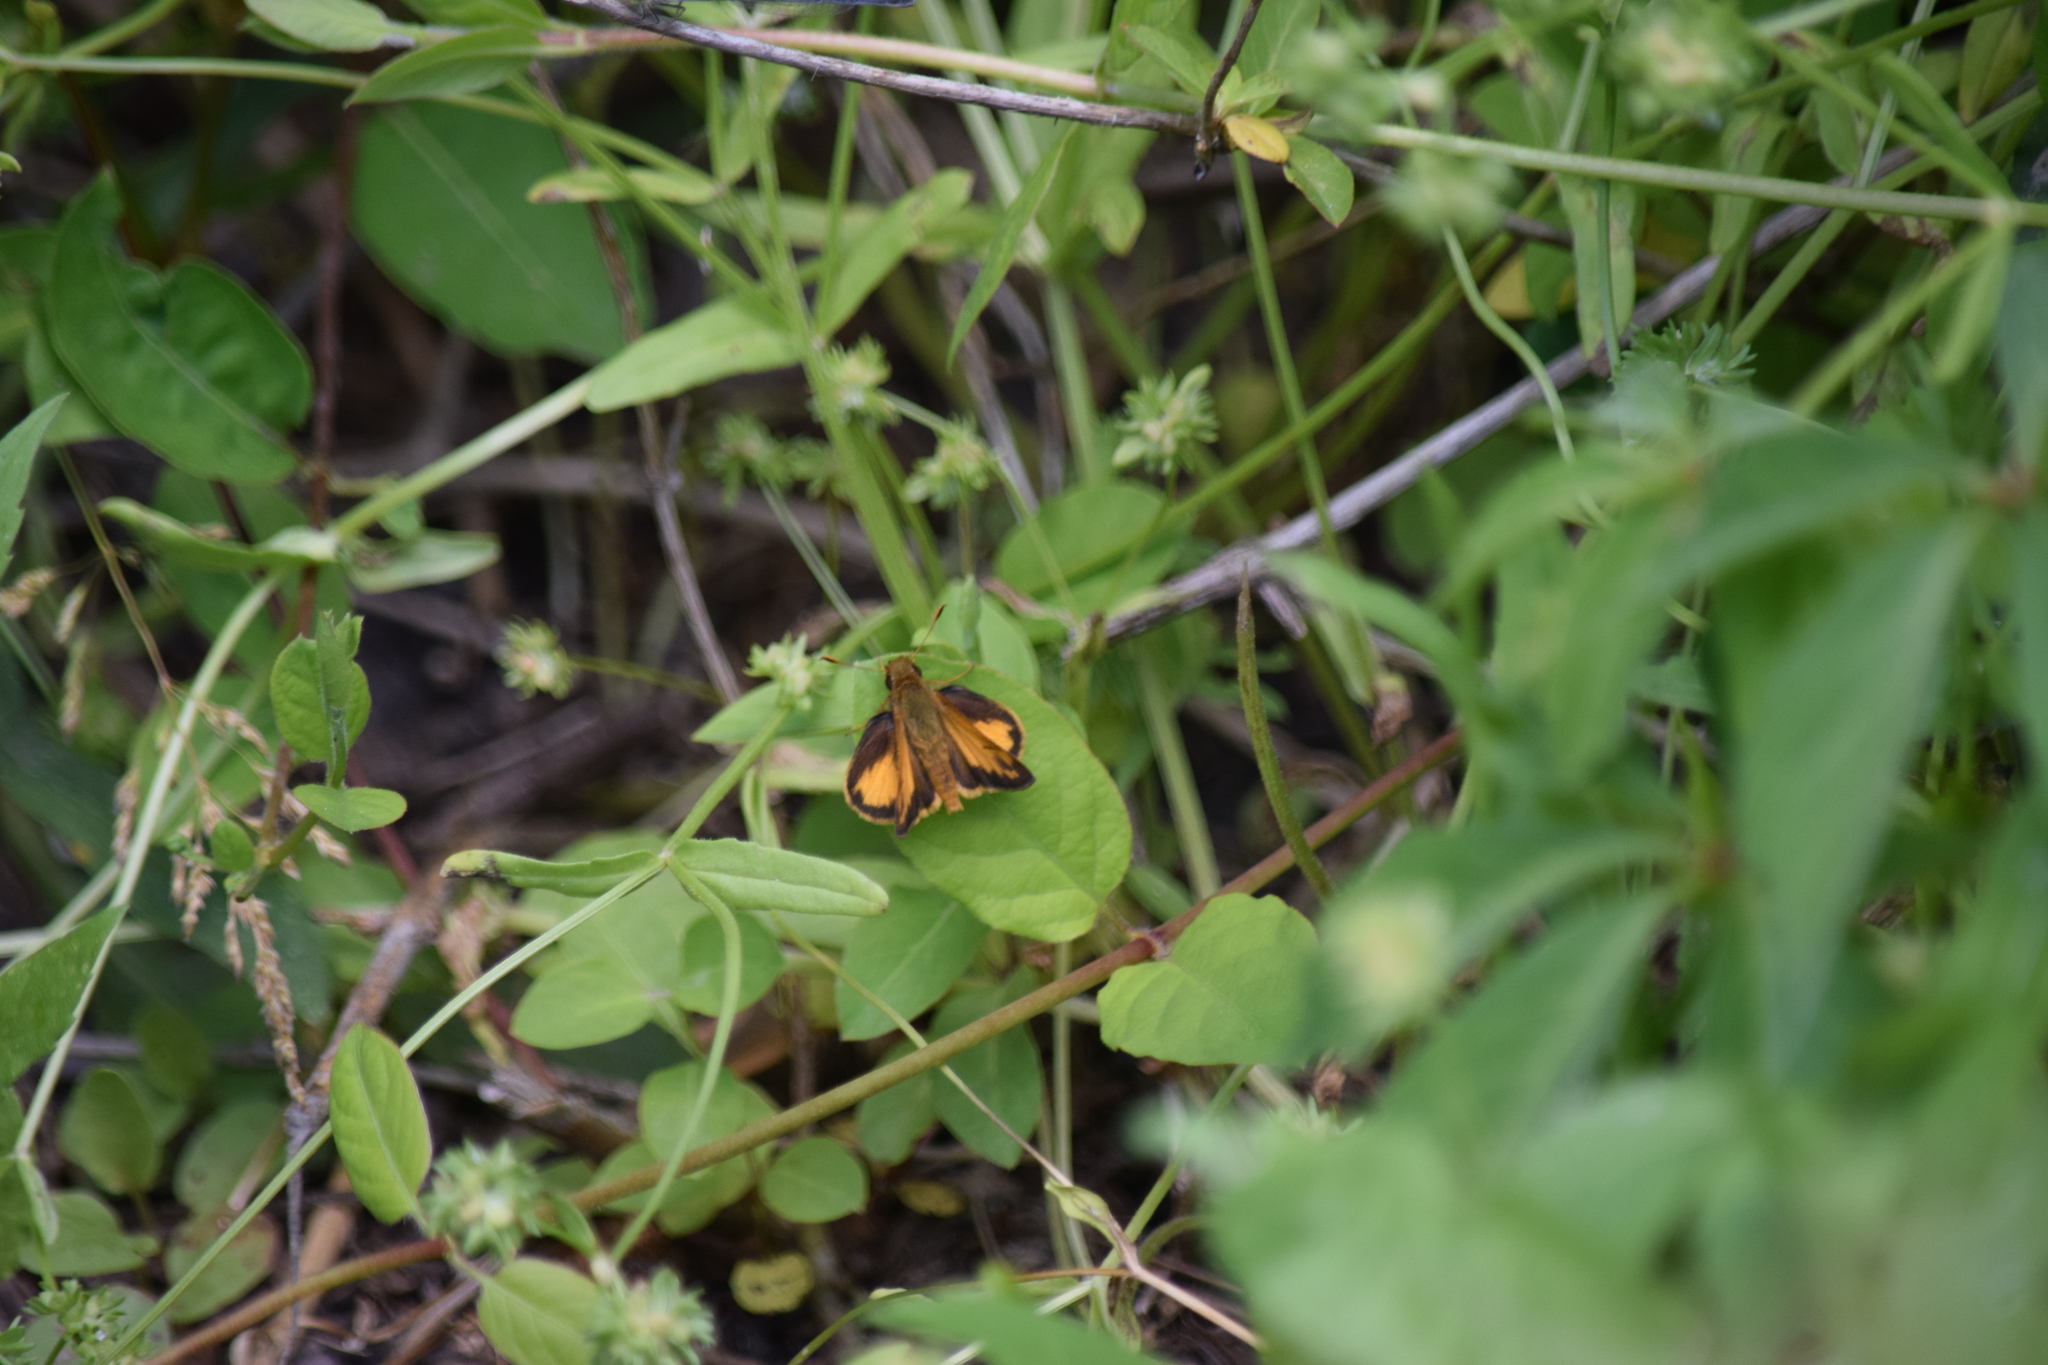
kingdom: Animalia
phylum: Arthropoda
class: Insecta
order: Lepidoptera
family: Hesperiidae
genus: Lon
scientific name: Lon zabulon
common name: Zabulon skipper
